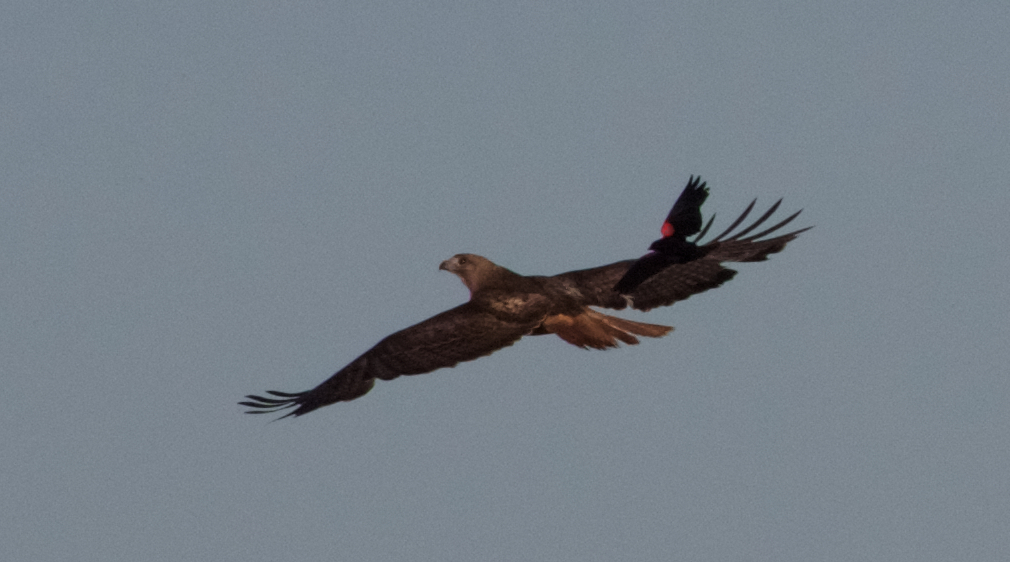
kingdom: Animalia
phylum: Chordata
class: Aves
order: Accipitriformes
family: Accipitridae
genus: Buteo
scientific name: Buteo jamaicensis
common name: Red-tailed hawk
